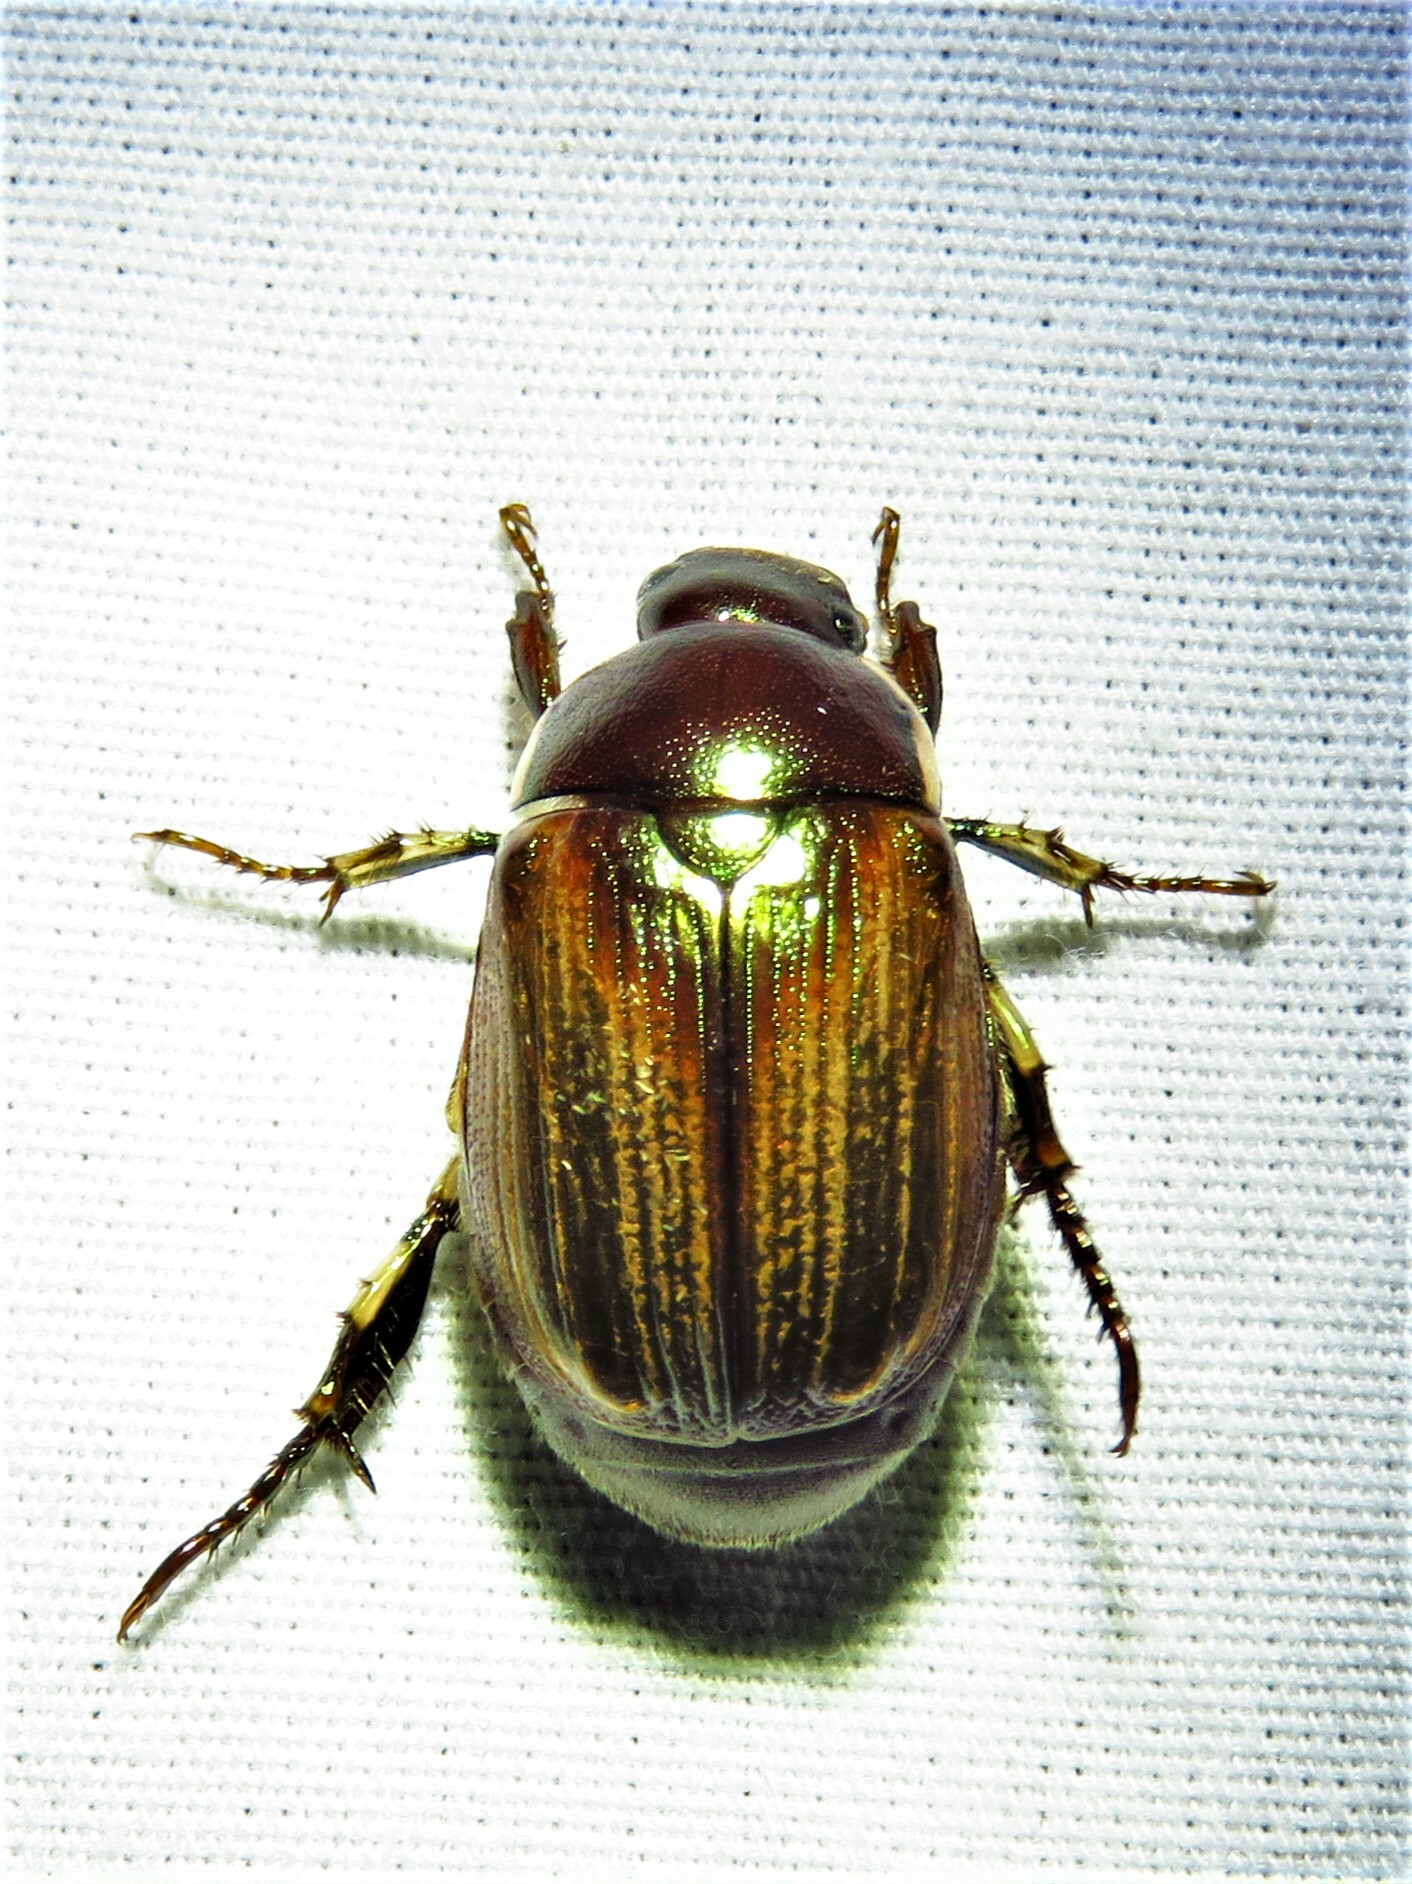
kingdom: Animalia
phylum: Arthropoda
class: Insecta
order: Coleoptera
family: Scarabaeidae
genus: Callistethus
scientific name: Callistethus marginatus
